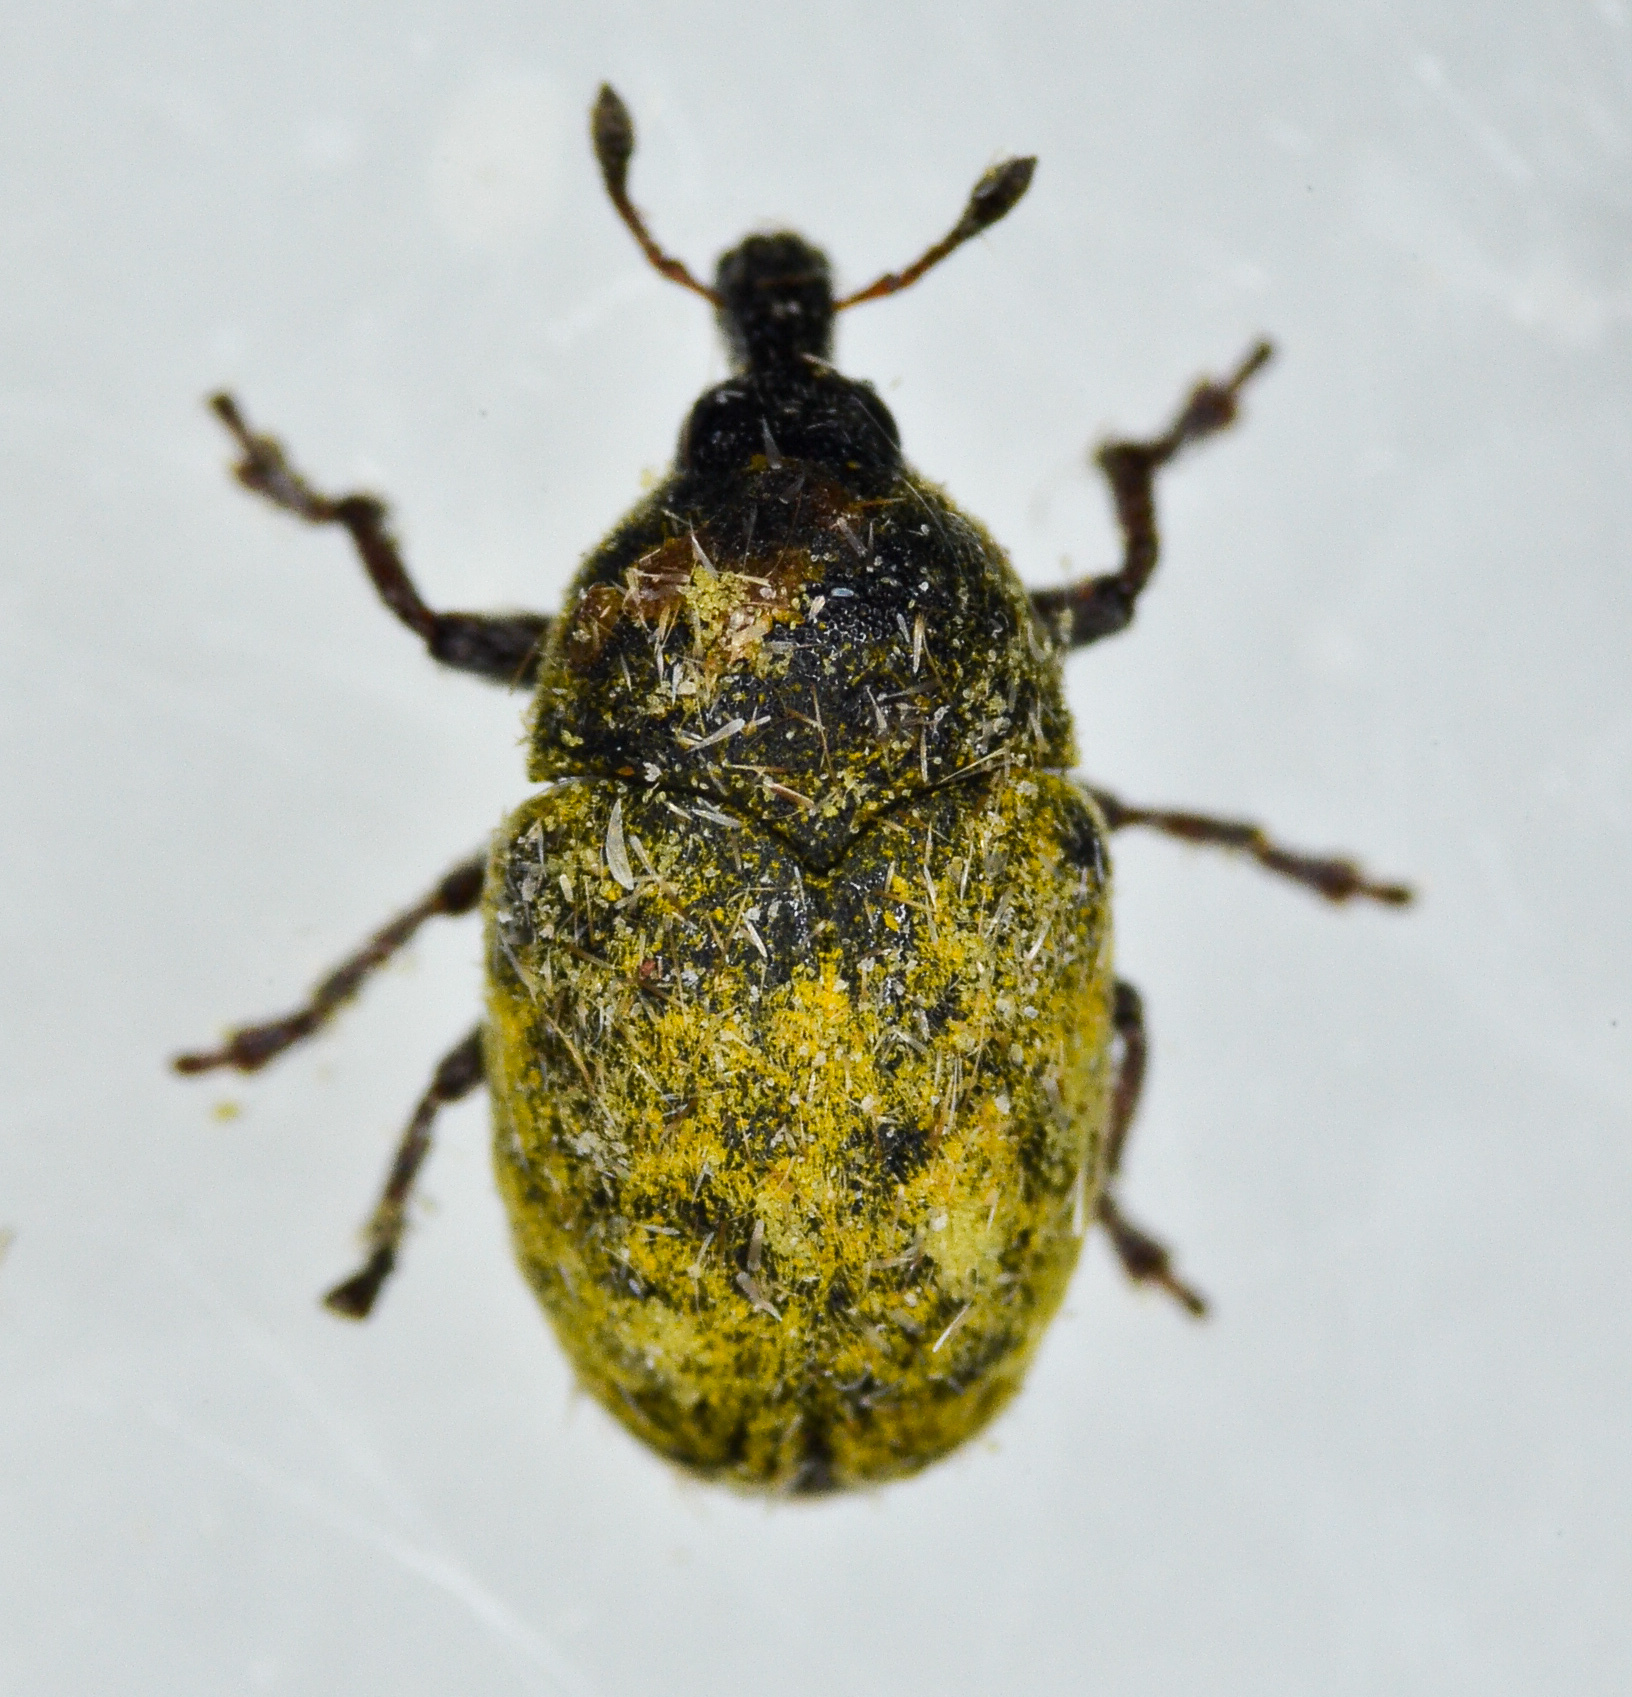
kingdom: Animalia
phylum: Arthropoda
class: Insecta
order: Coleoptera
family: Curculionidae
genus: Larinus
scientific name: Larinus curtus
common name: Weevil
